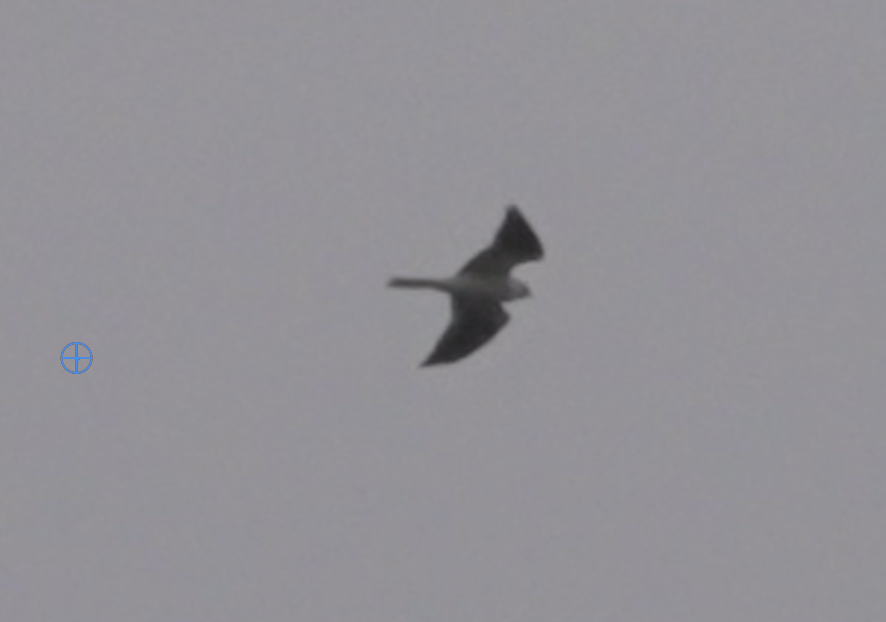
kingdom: Animalia
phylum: Chordata
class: Aves
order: Accipitriformes
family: Accipitridae
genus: Elanus
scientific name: Elanus leucurus
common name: White-tailed kite
